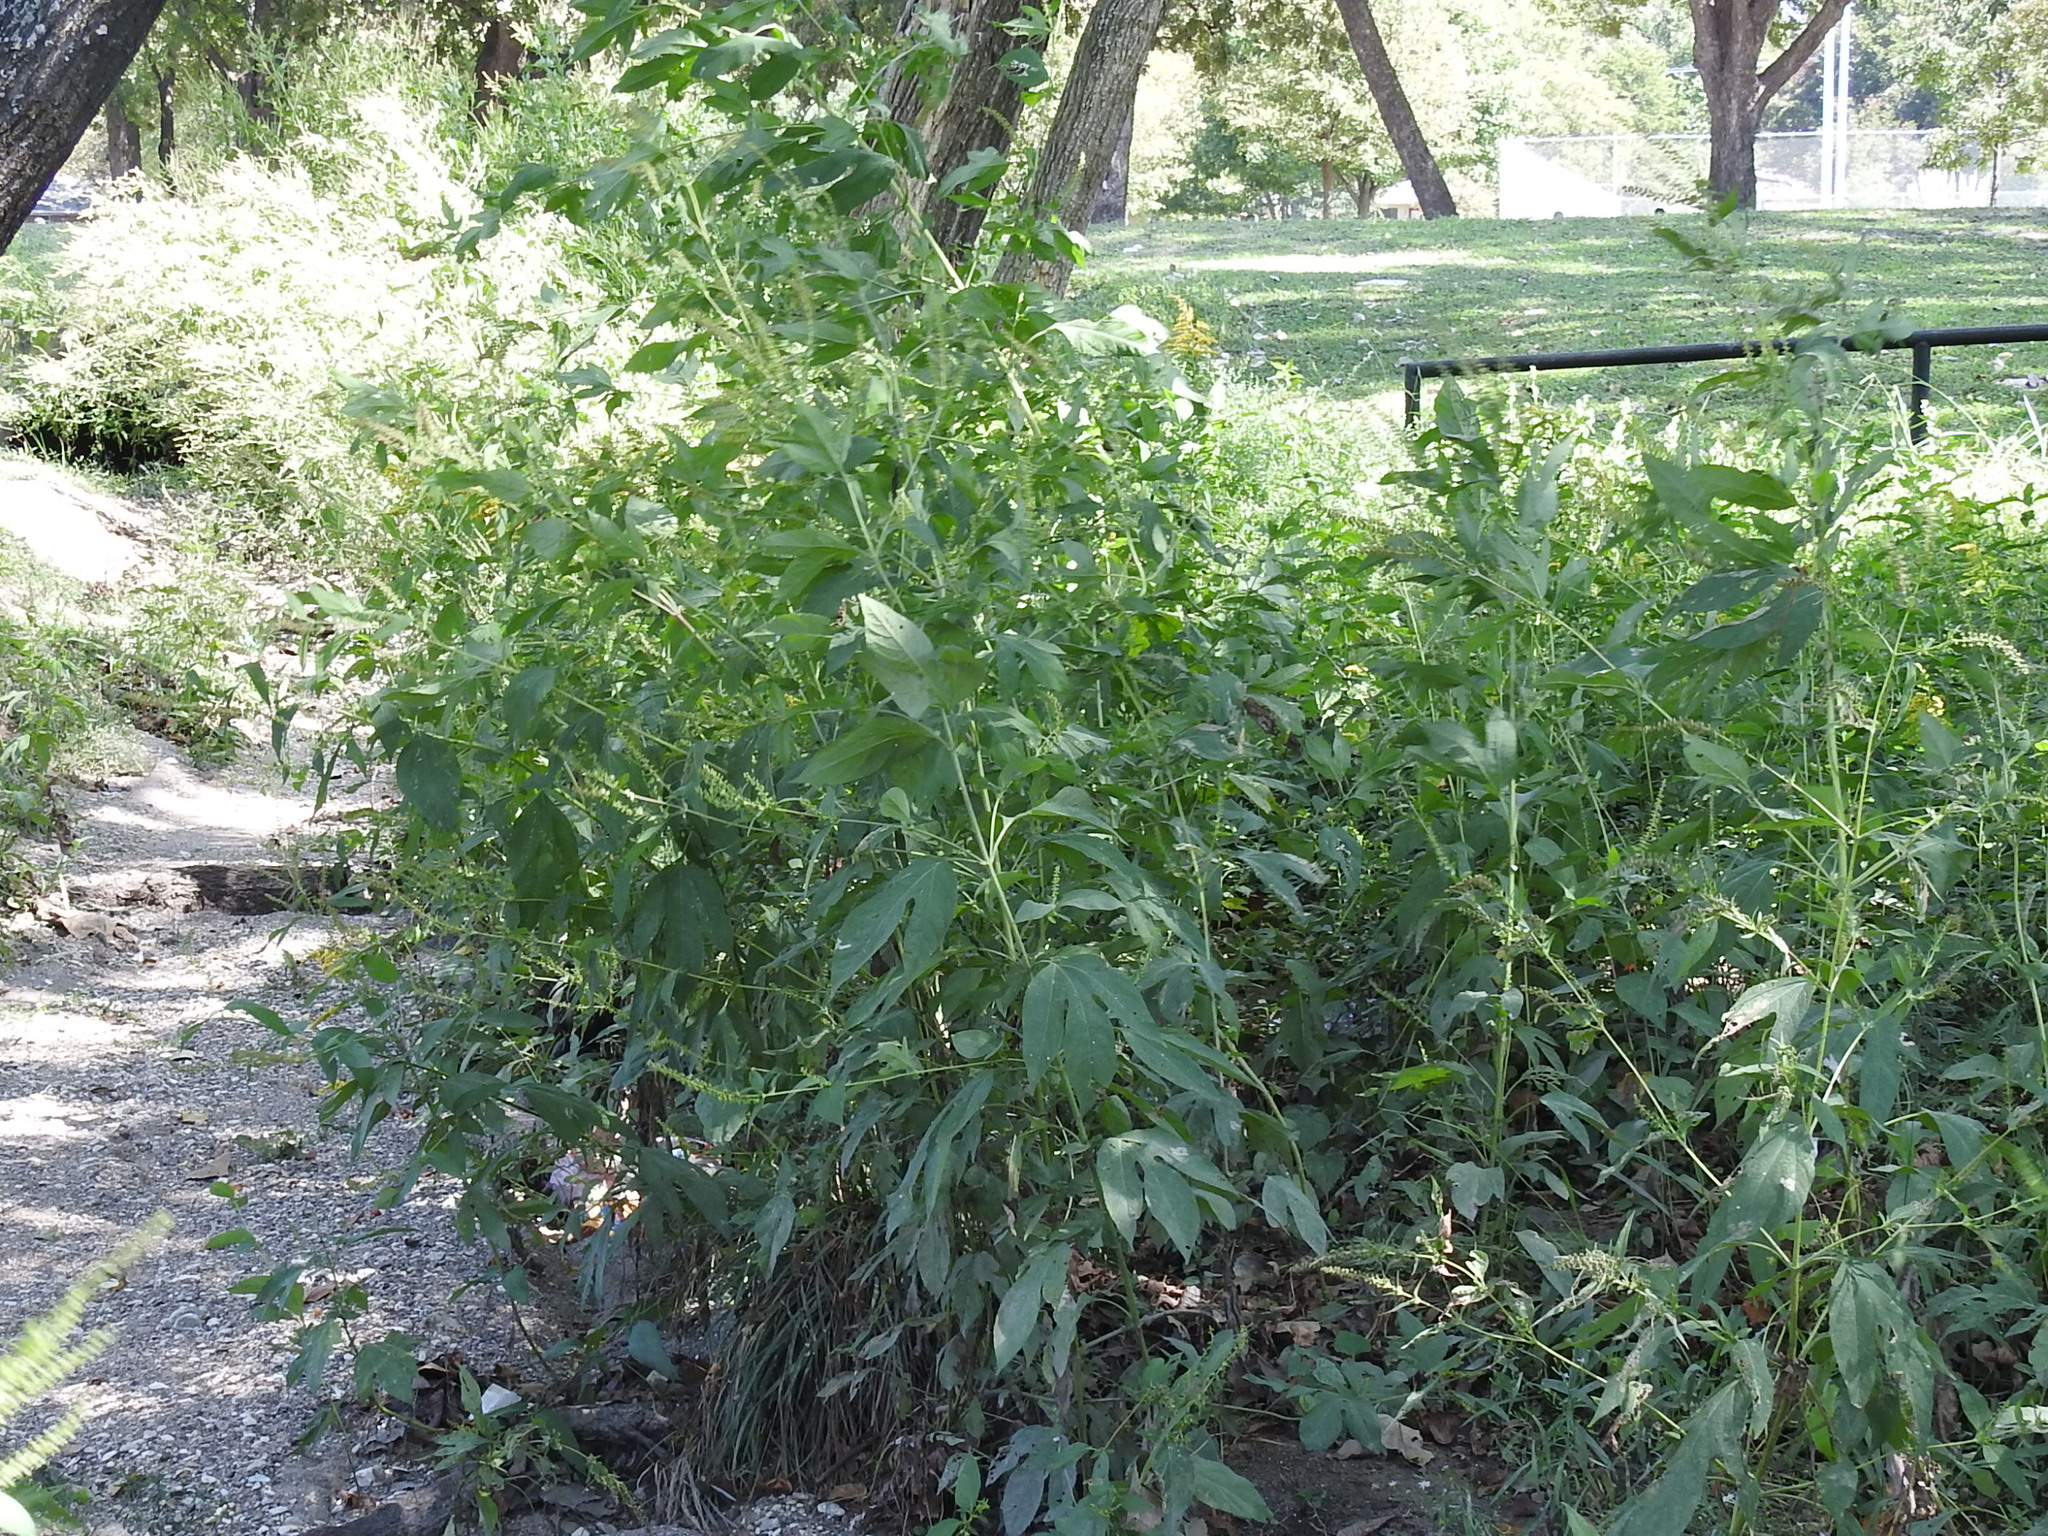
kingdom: Plantae
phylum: Tracheophyta
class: Magnoliopsida
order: Asterales
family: Asteraceae
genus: Ambrosia
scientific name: Ambrosia trifida
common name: Giant ragweed
